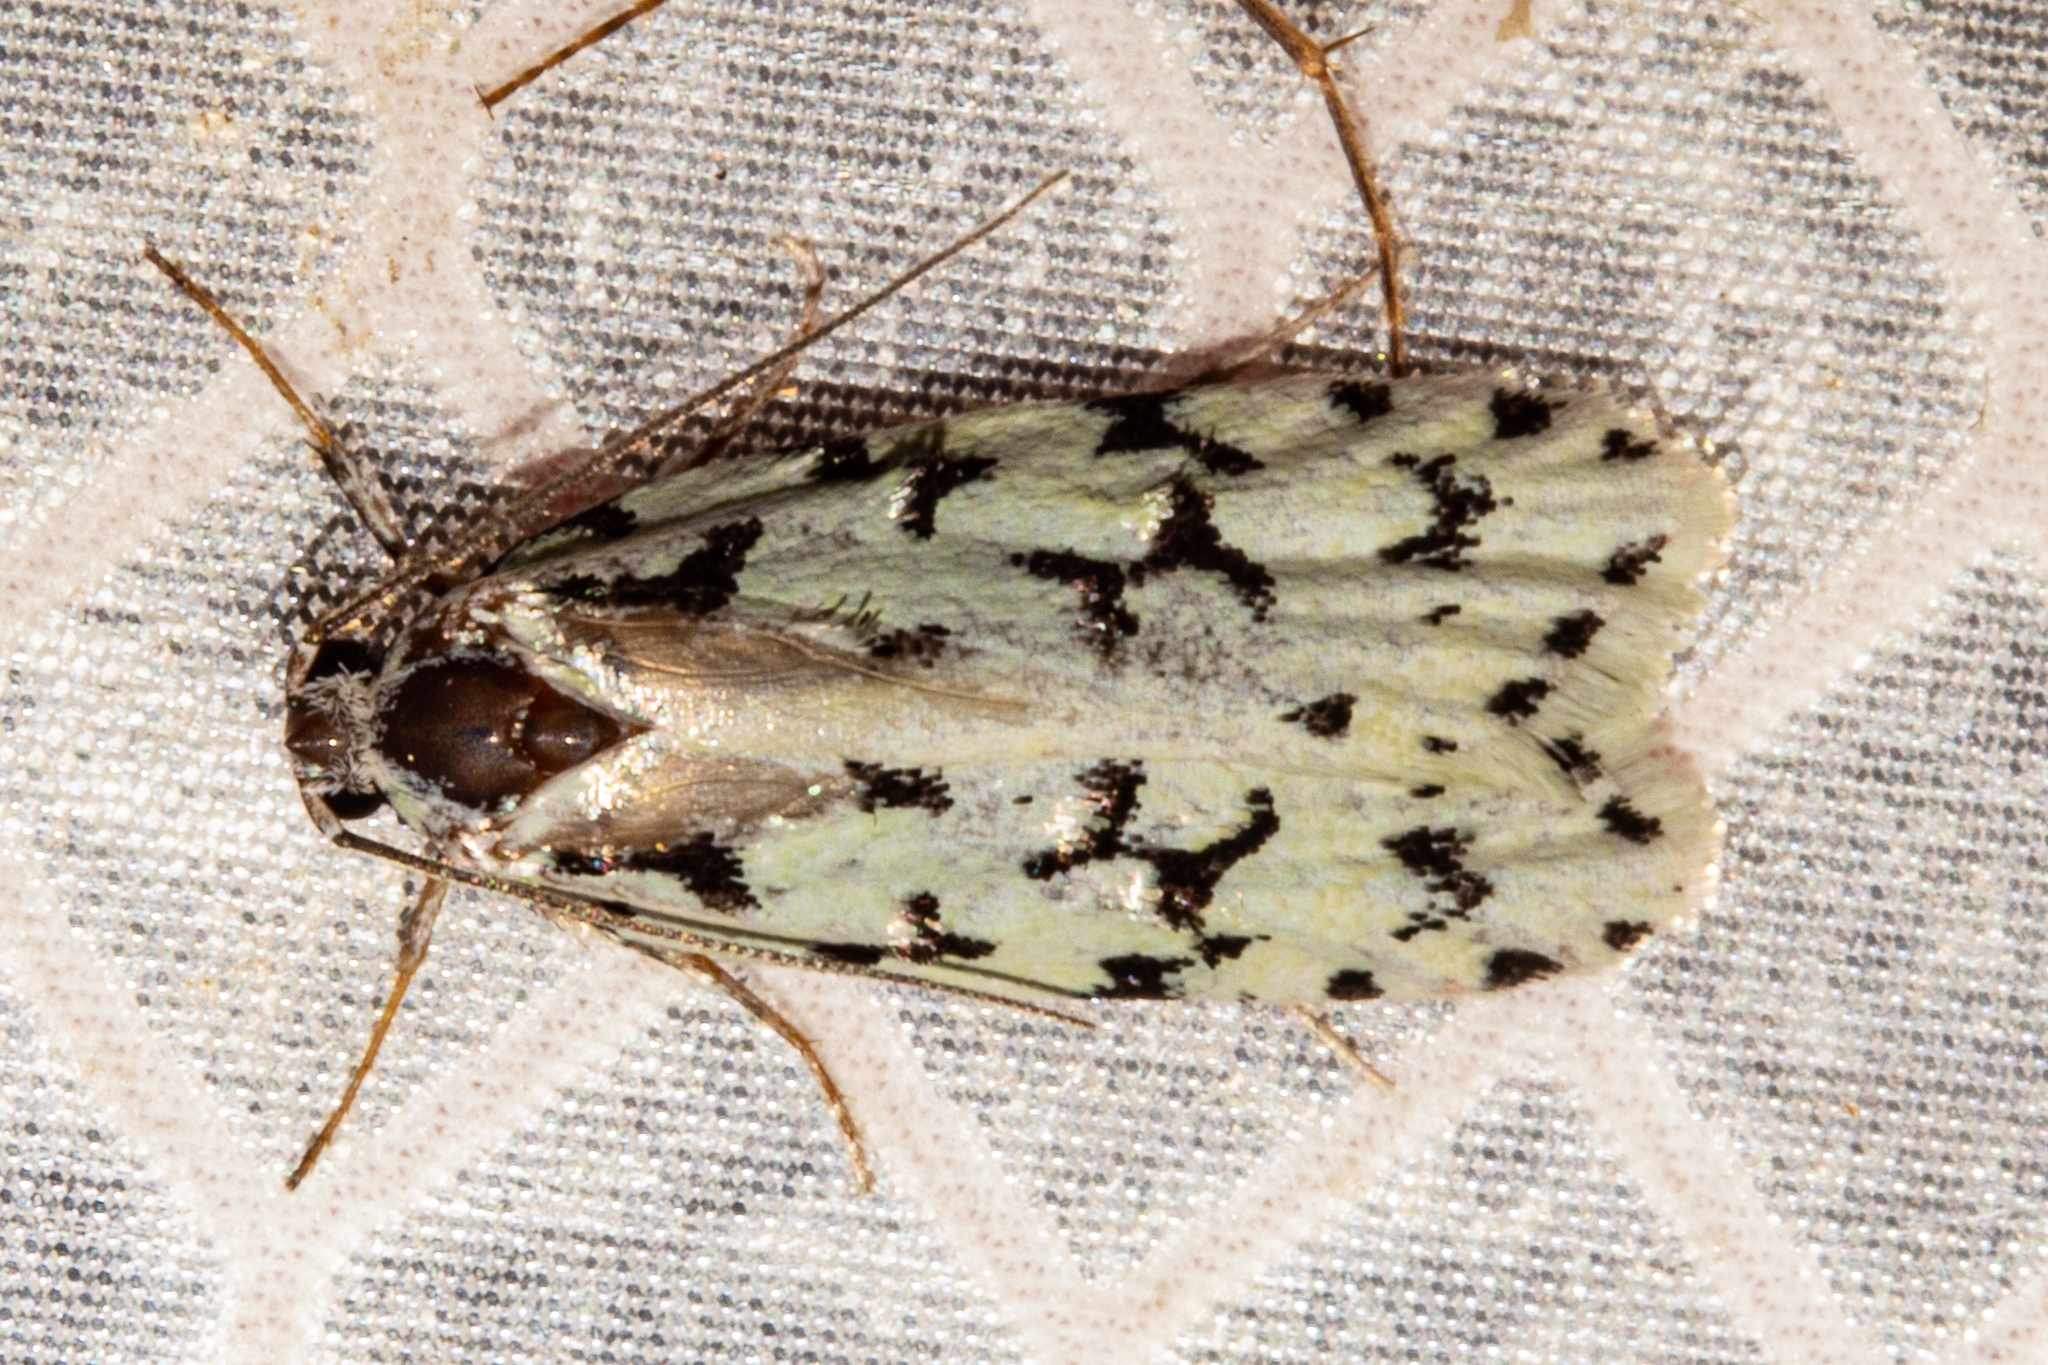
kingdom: Animalia
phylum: Arthropoda
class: Insecta
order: Lepidoptera
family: Oecophoridae
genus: Izatha
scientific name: Izatha huttoni
